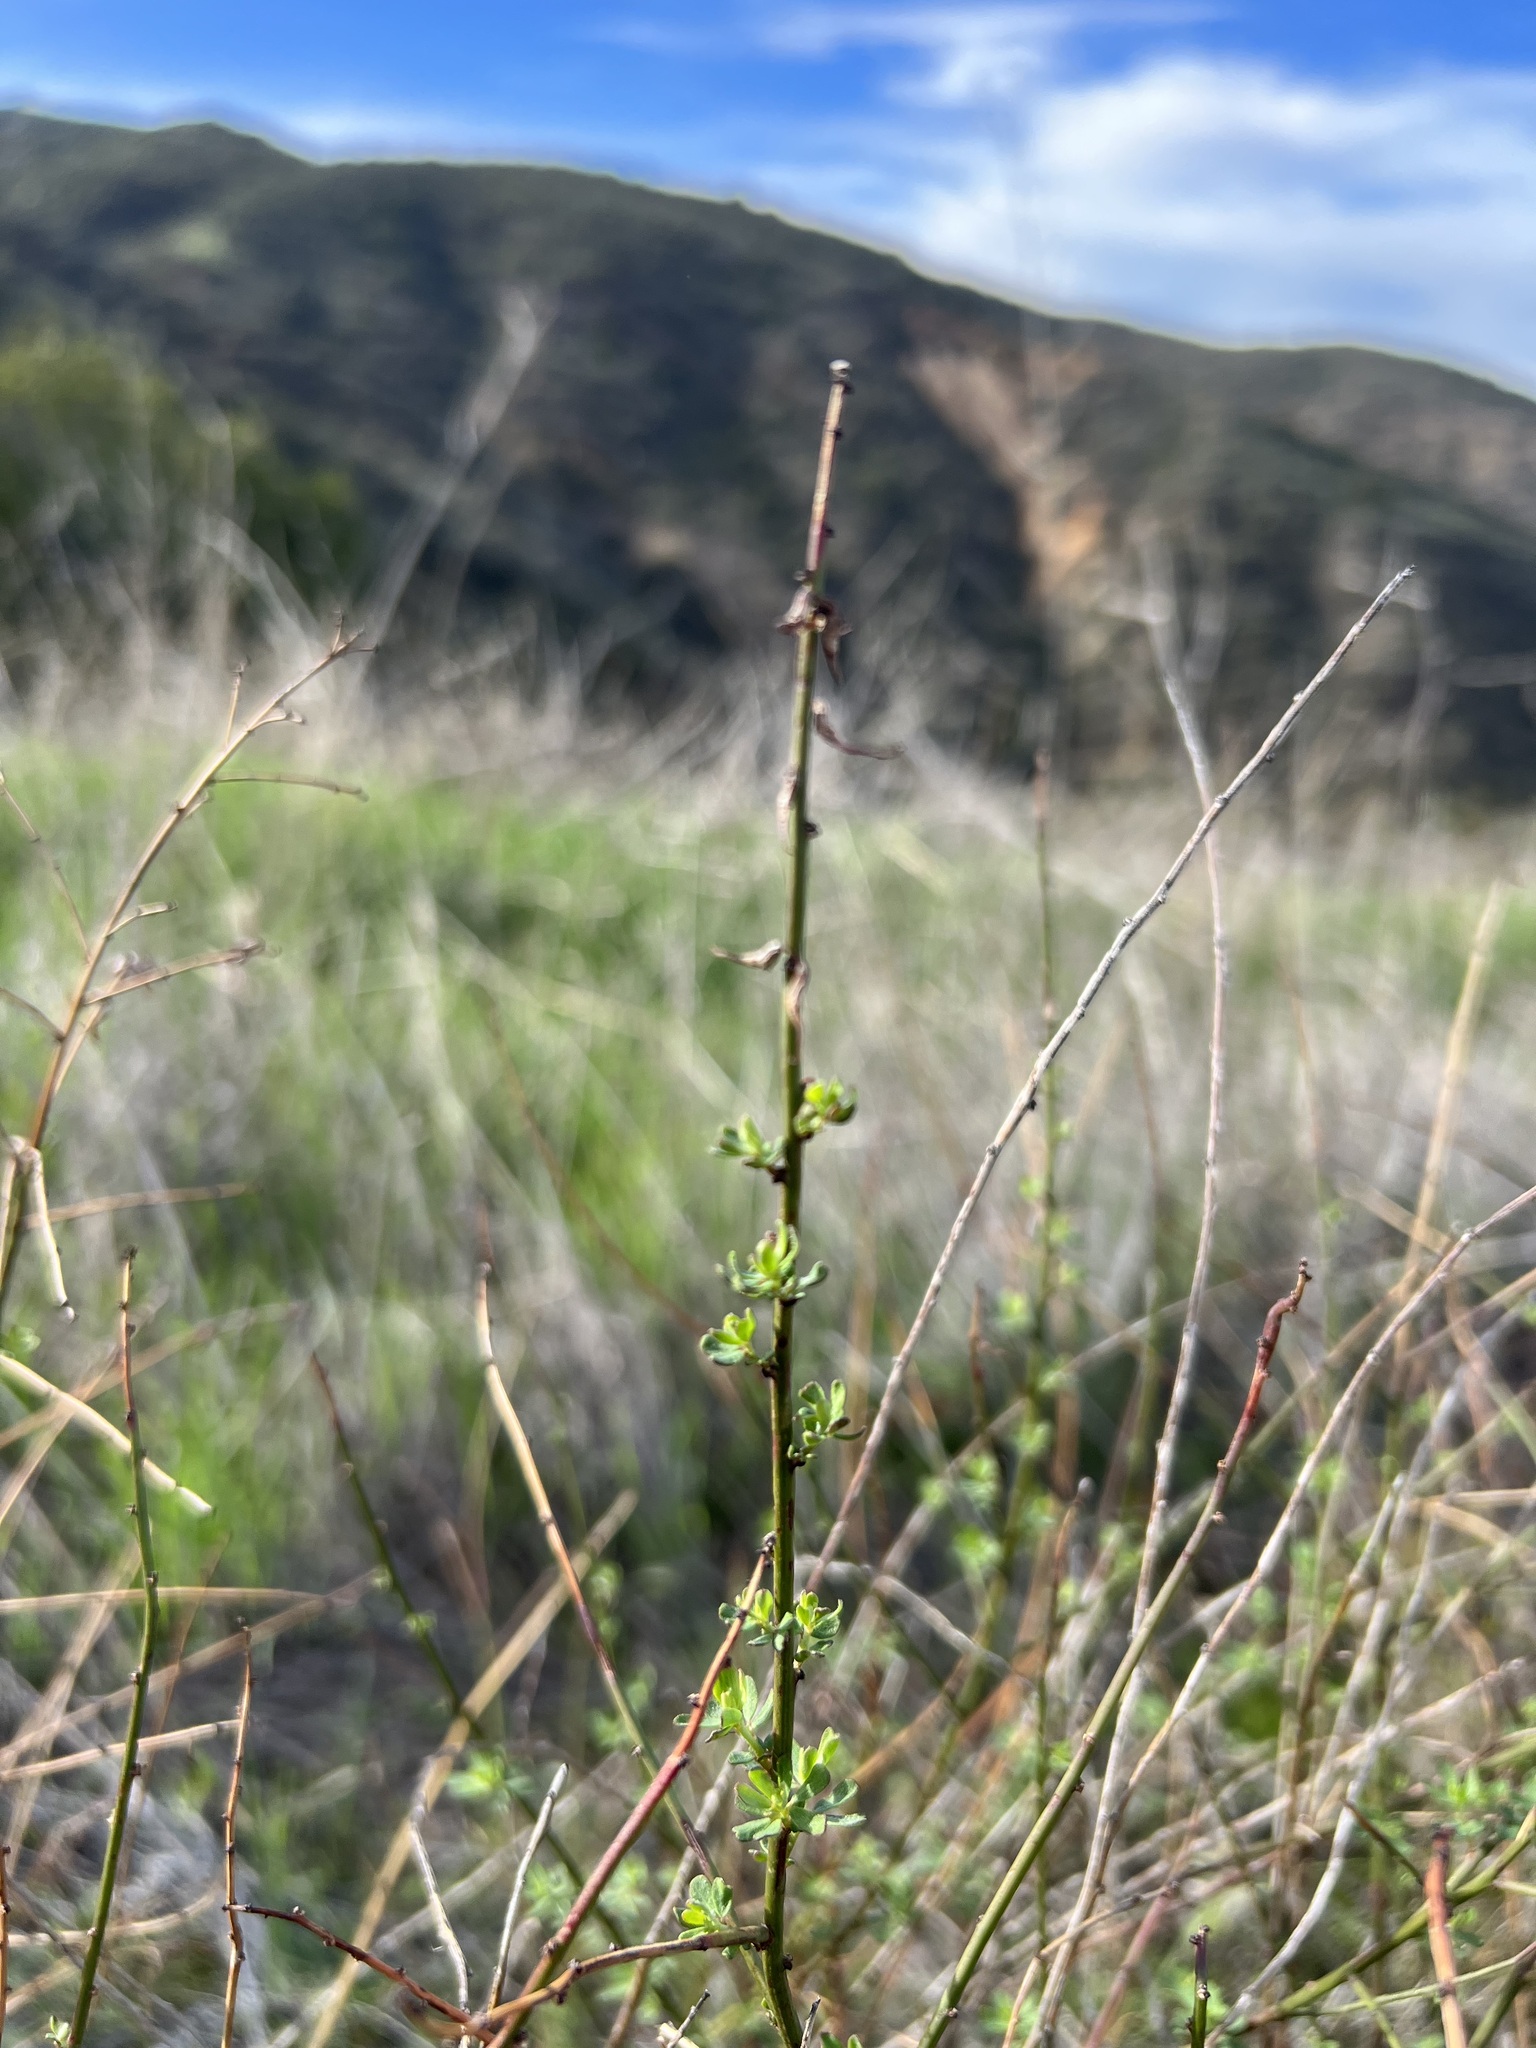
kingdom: Plantae
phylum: Tracheophyta
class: Magnoliopsida
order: Fabales
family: Fabaceae
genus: Acmispon
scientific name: Acmispon glaber
